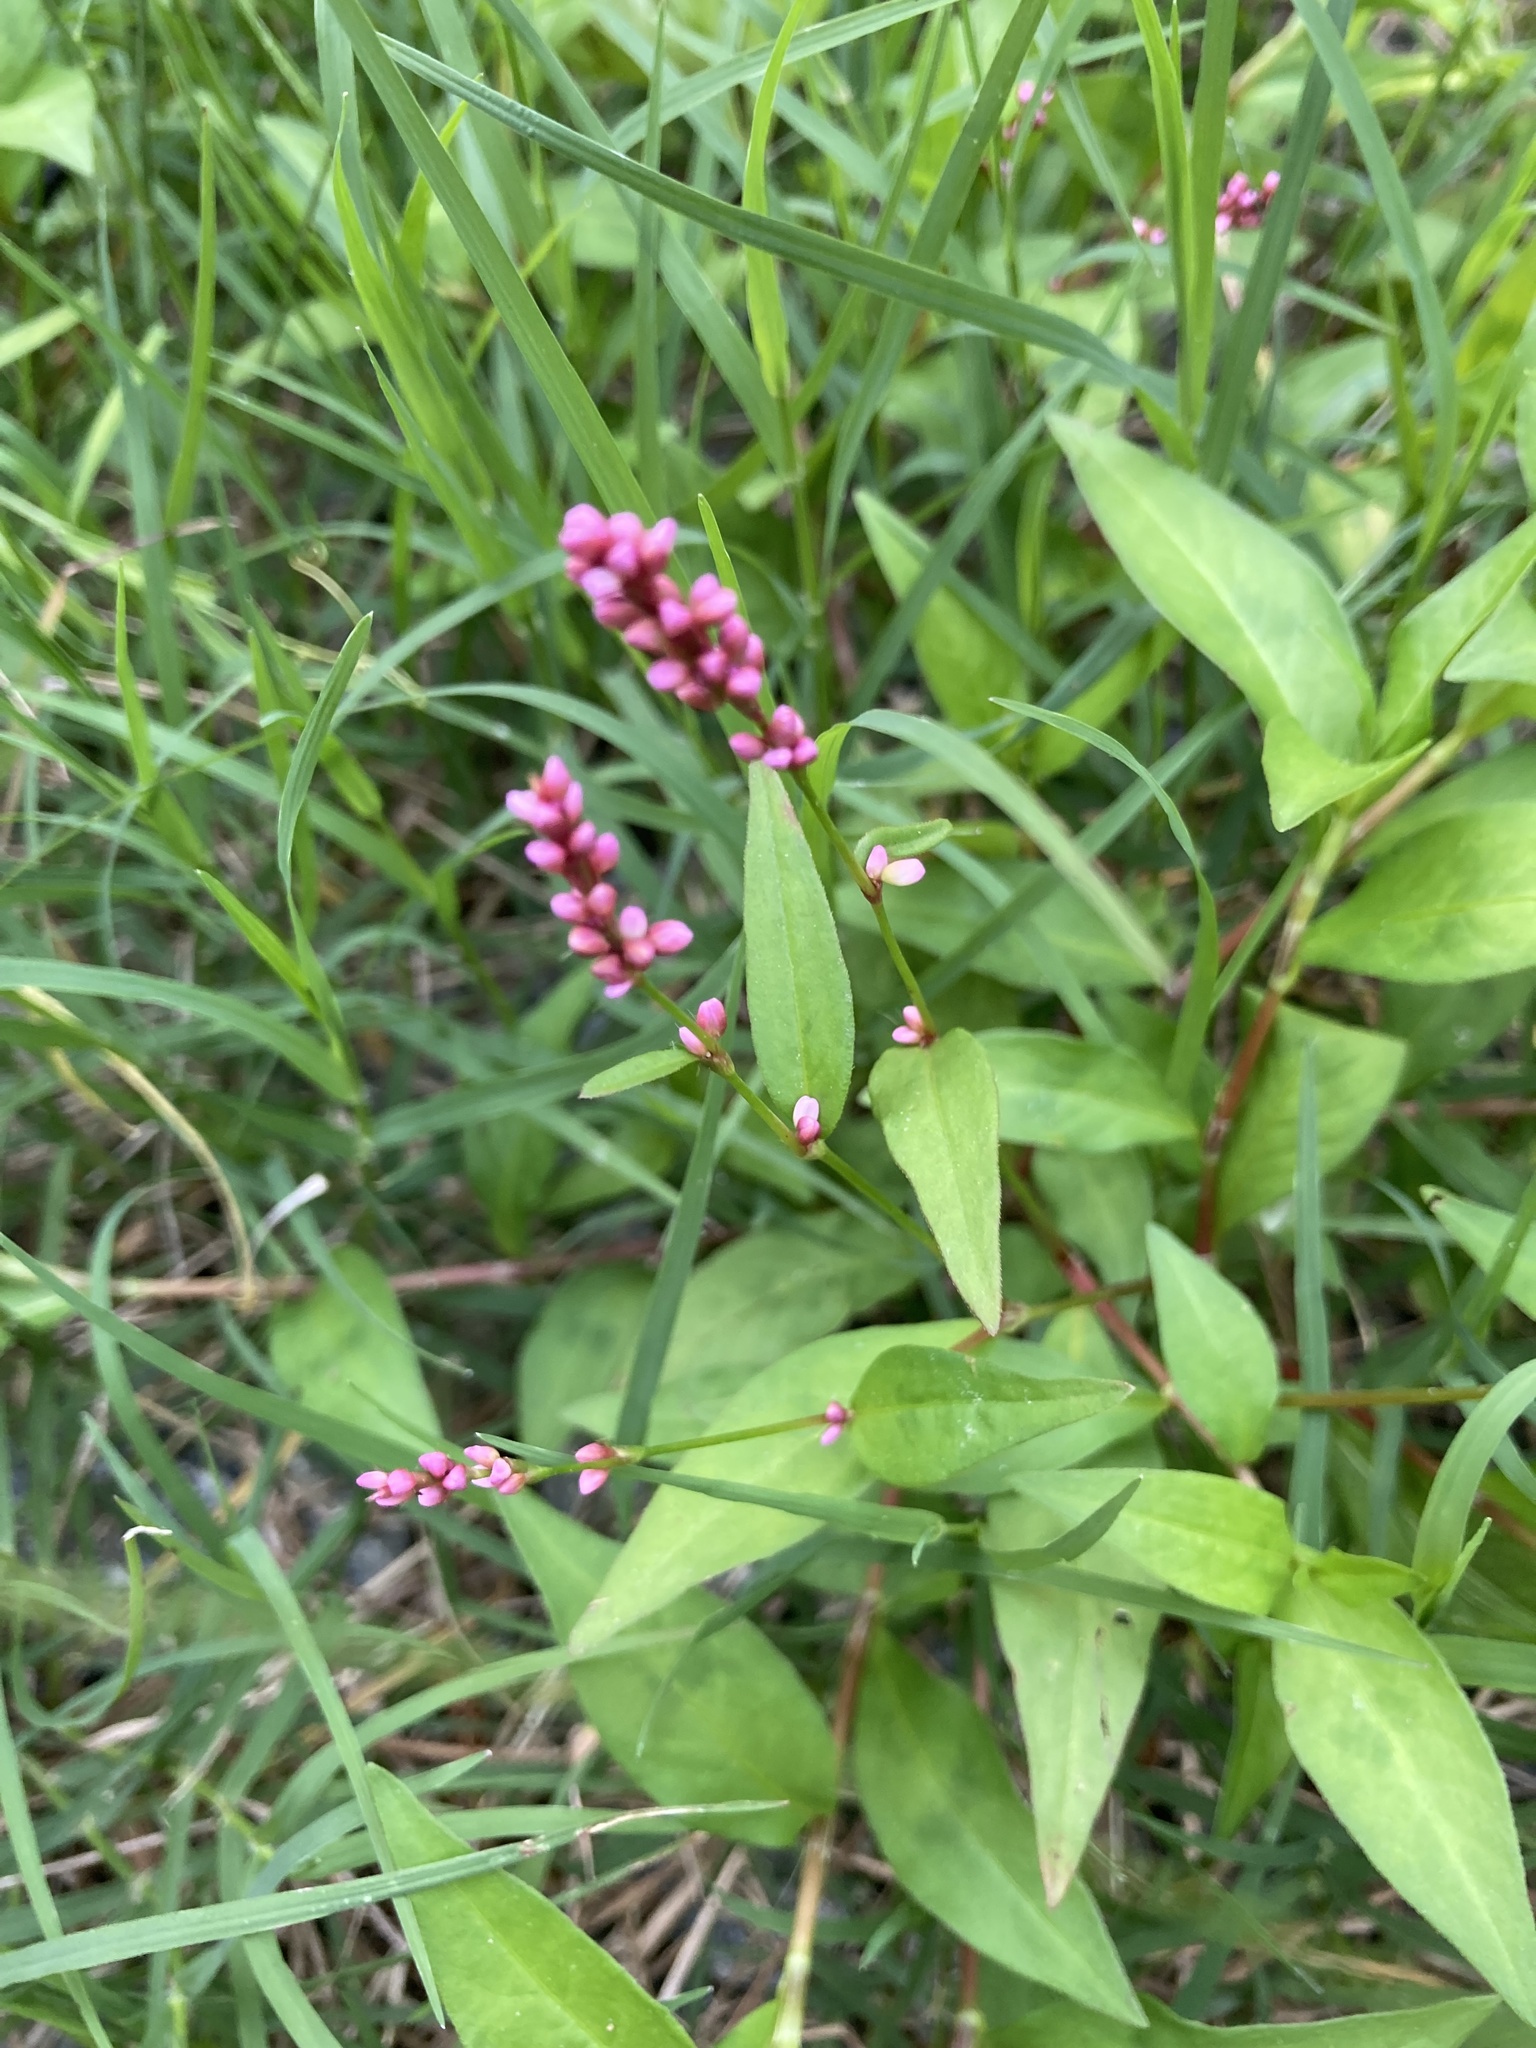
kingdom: Plantae
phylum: Tracheophyta
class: Magnoliopsida
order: Caryophyllales
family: Polygonaceae
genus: Persicaria
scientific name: Persicaria longiseta
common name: Bristly lady's-thumb
